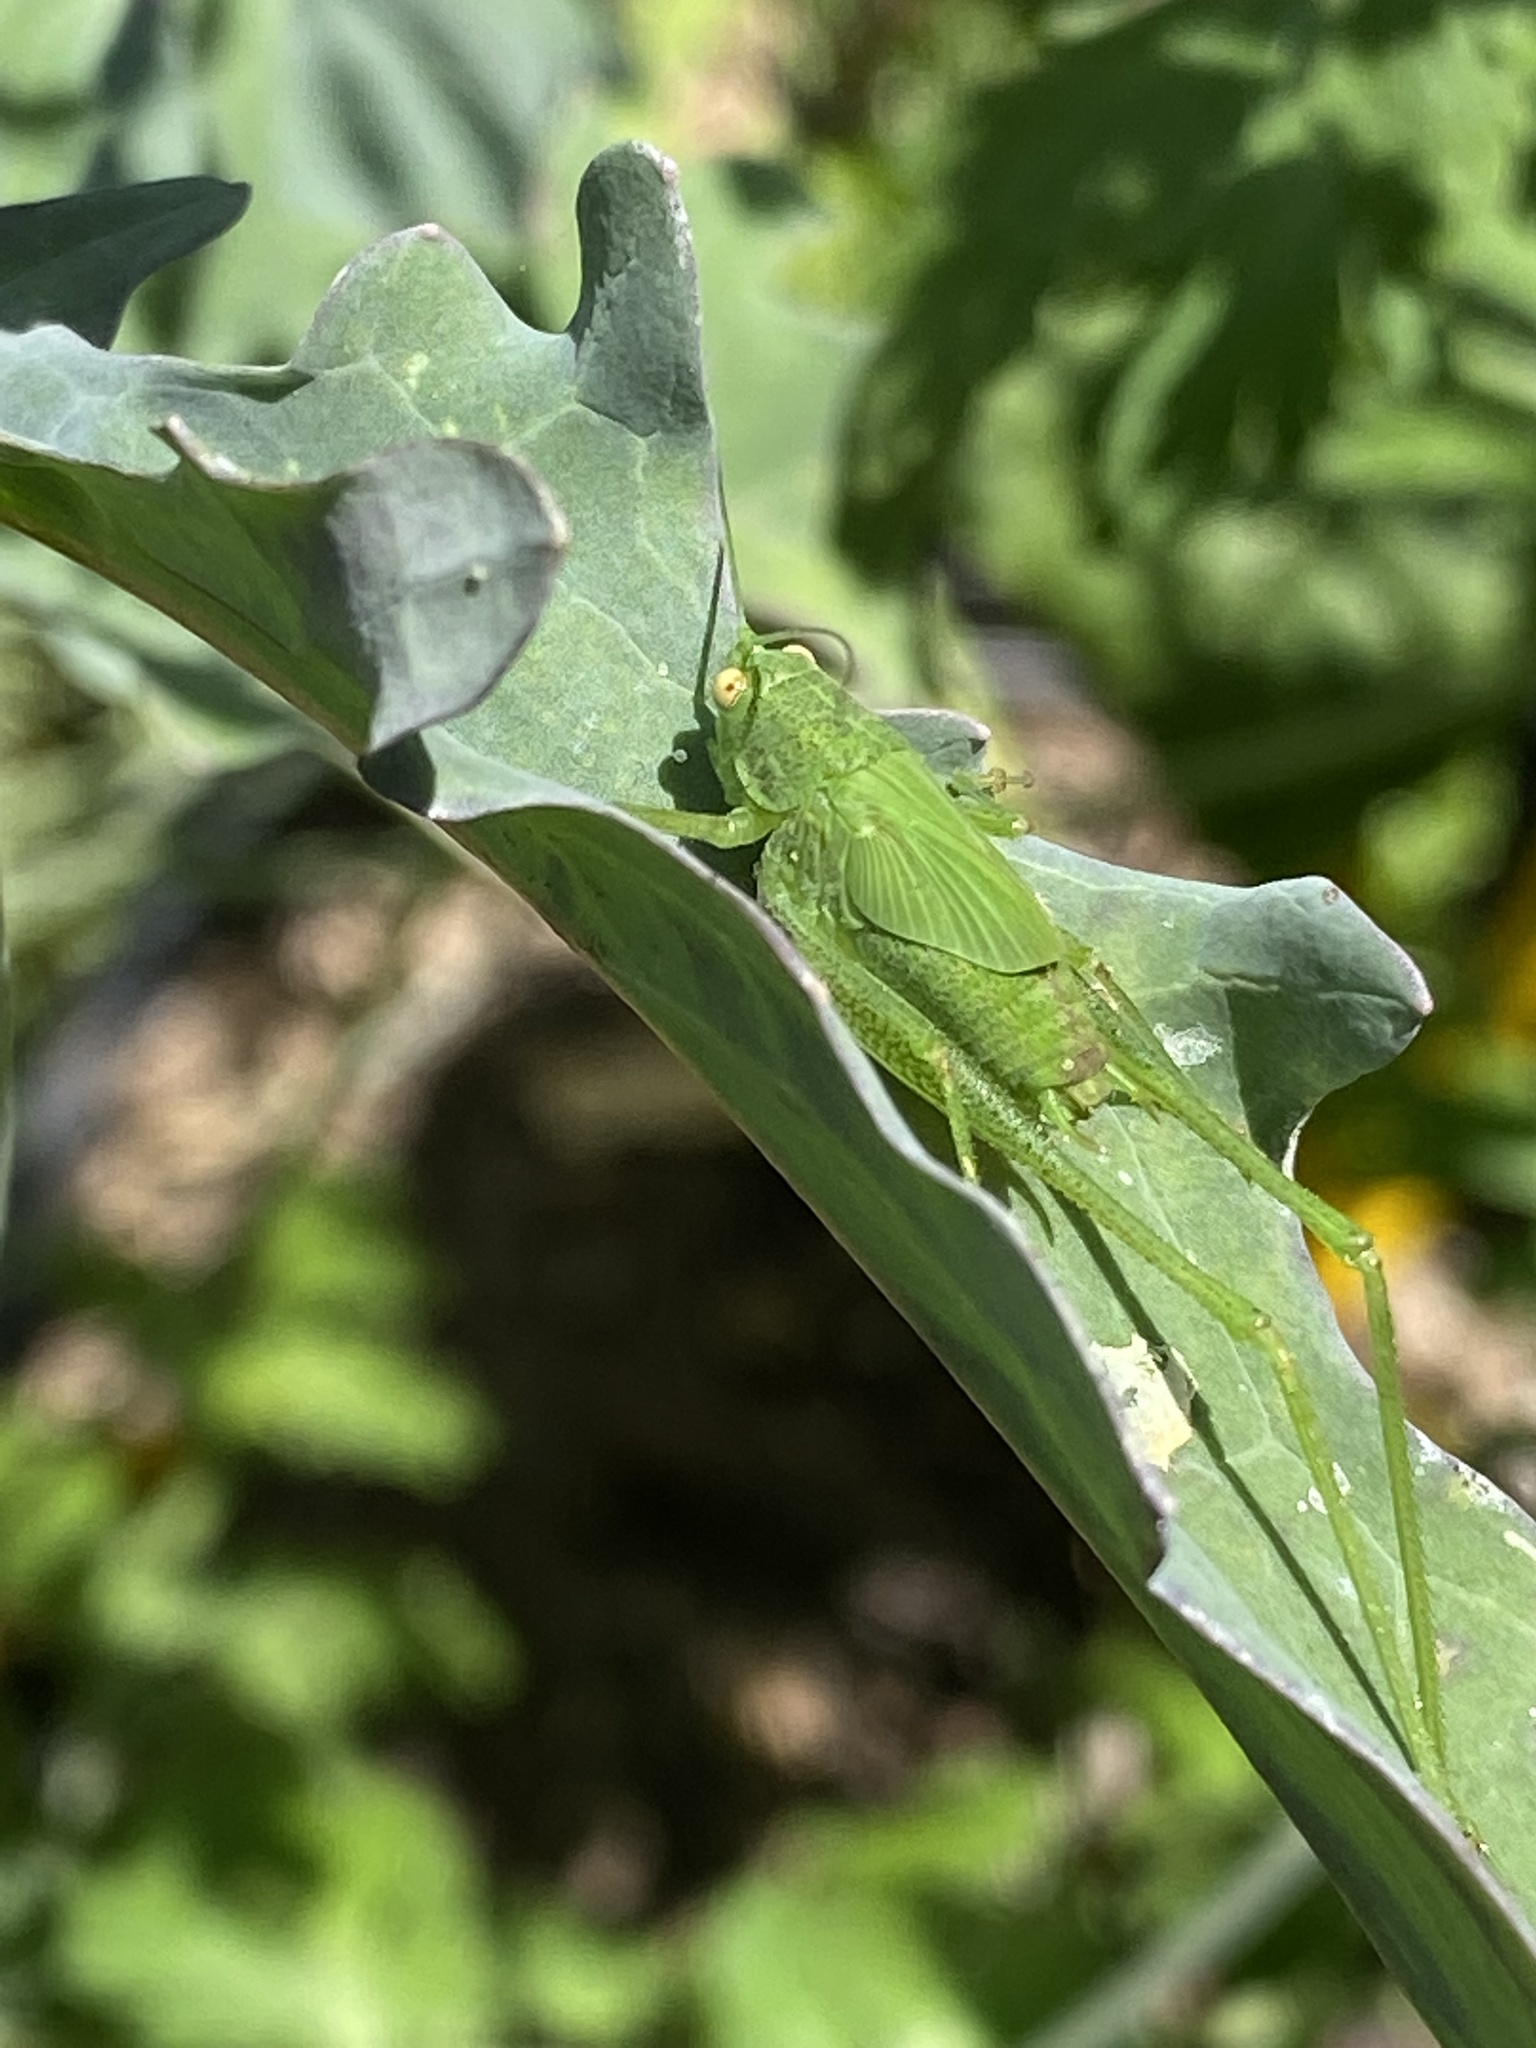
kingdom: Animalia
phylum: Arthropoda
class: Insecta
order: Orthoptera
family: Tettigoniidae
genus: Phaneroptera
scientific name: Phaneroptera nana
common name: Southern sickle bush-cricket
